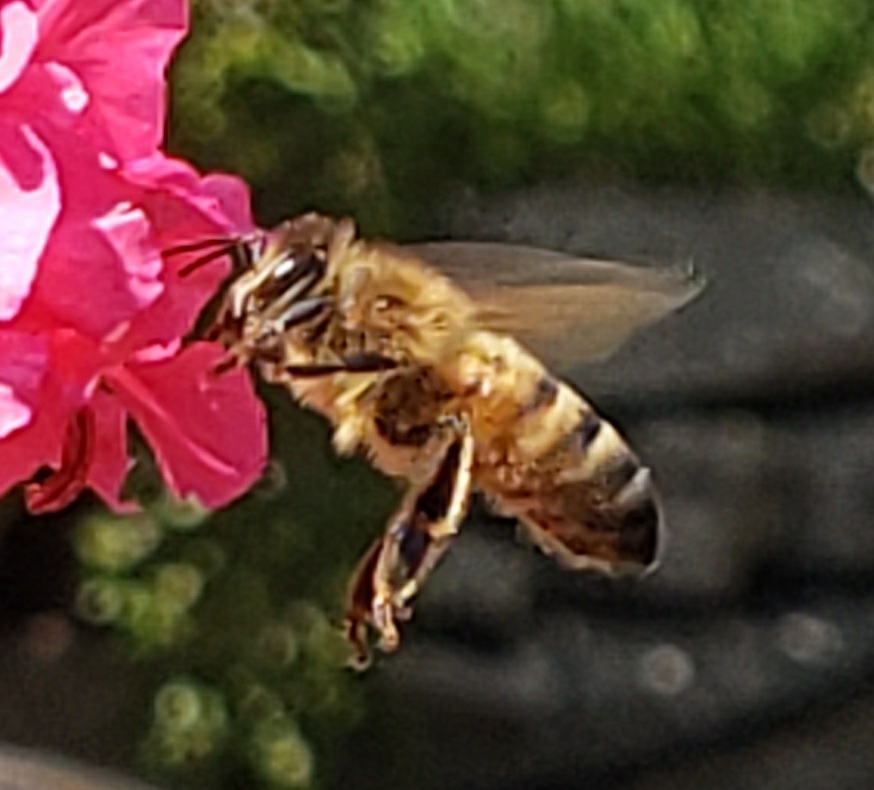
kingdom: Animalia
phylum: Arthropoda
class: Insecta
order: Hymenoptera
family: Apidae
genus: Apis
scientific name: Apis mellifera
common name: Honey bee
